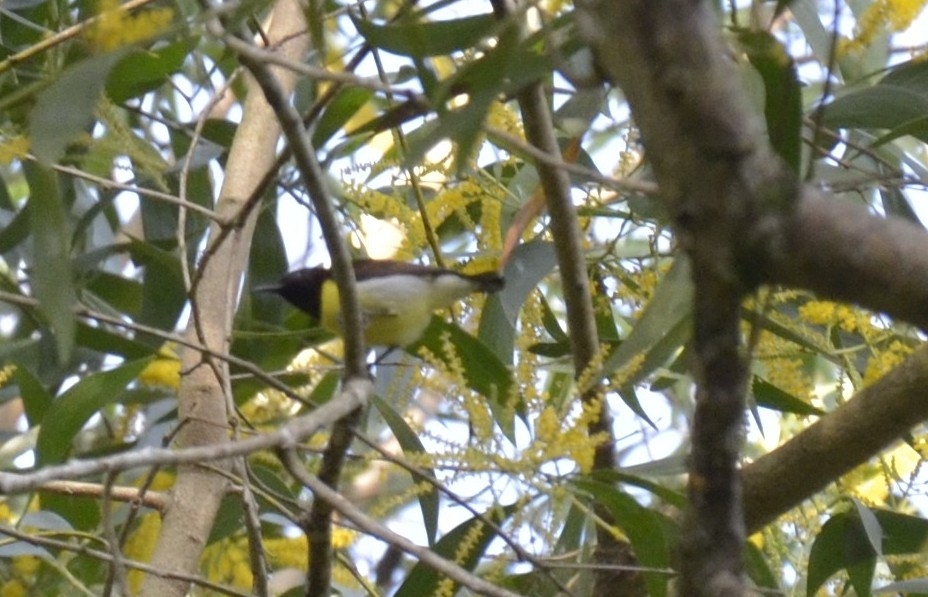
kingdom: Animalia
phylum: Chordata
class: Aves
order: Passeriformes
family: Nectariniidae
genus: Leptocoma
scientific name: Leptocoma zeylonica
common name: Purple-rumped sunbird
